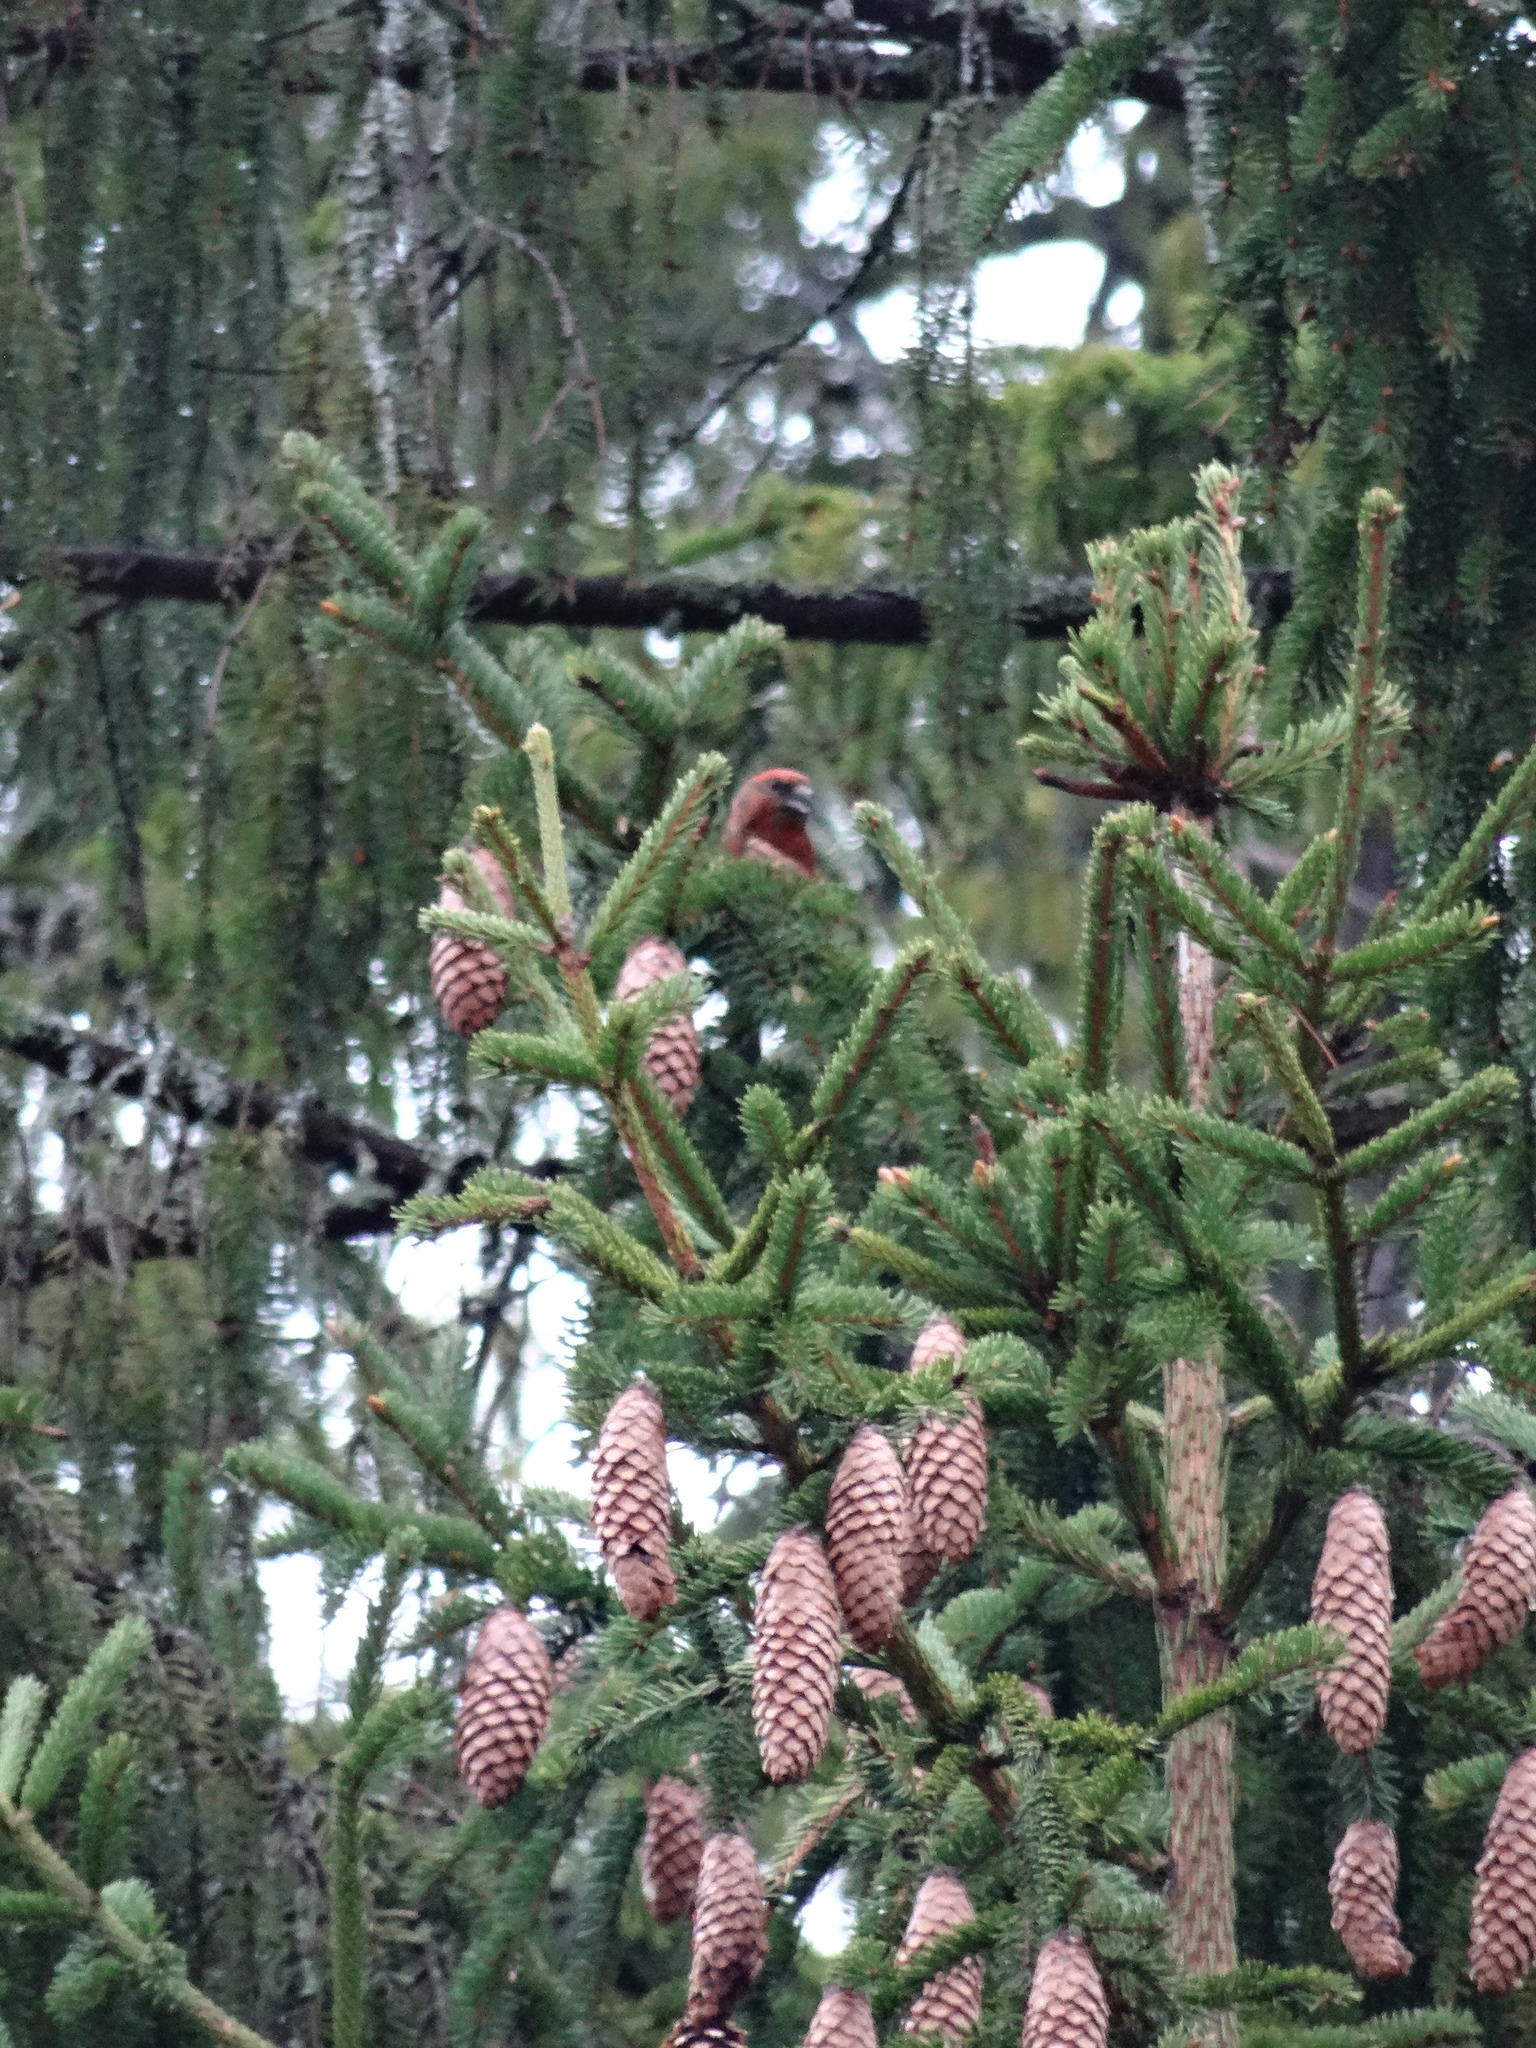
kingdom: Animalia
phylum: Chordata
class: Aves
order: Passeriformes
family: Fringillidae
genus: Loxia
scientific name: Loxia curvirostra
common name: Red crossbill
